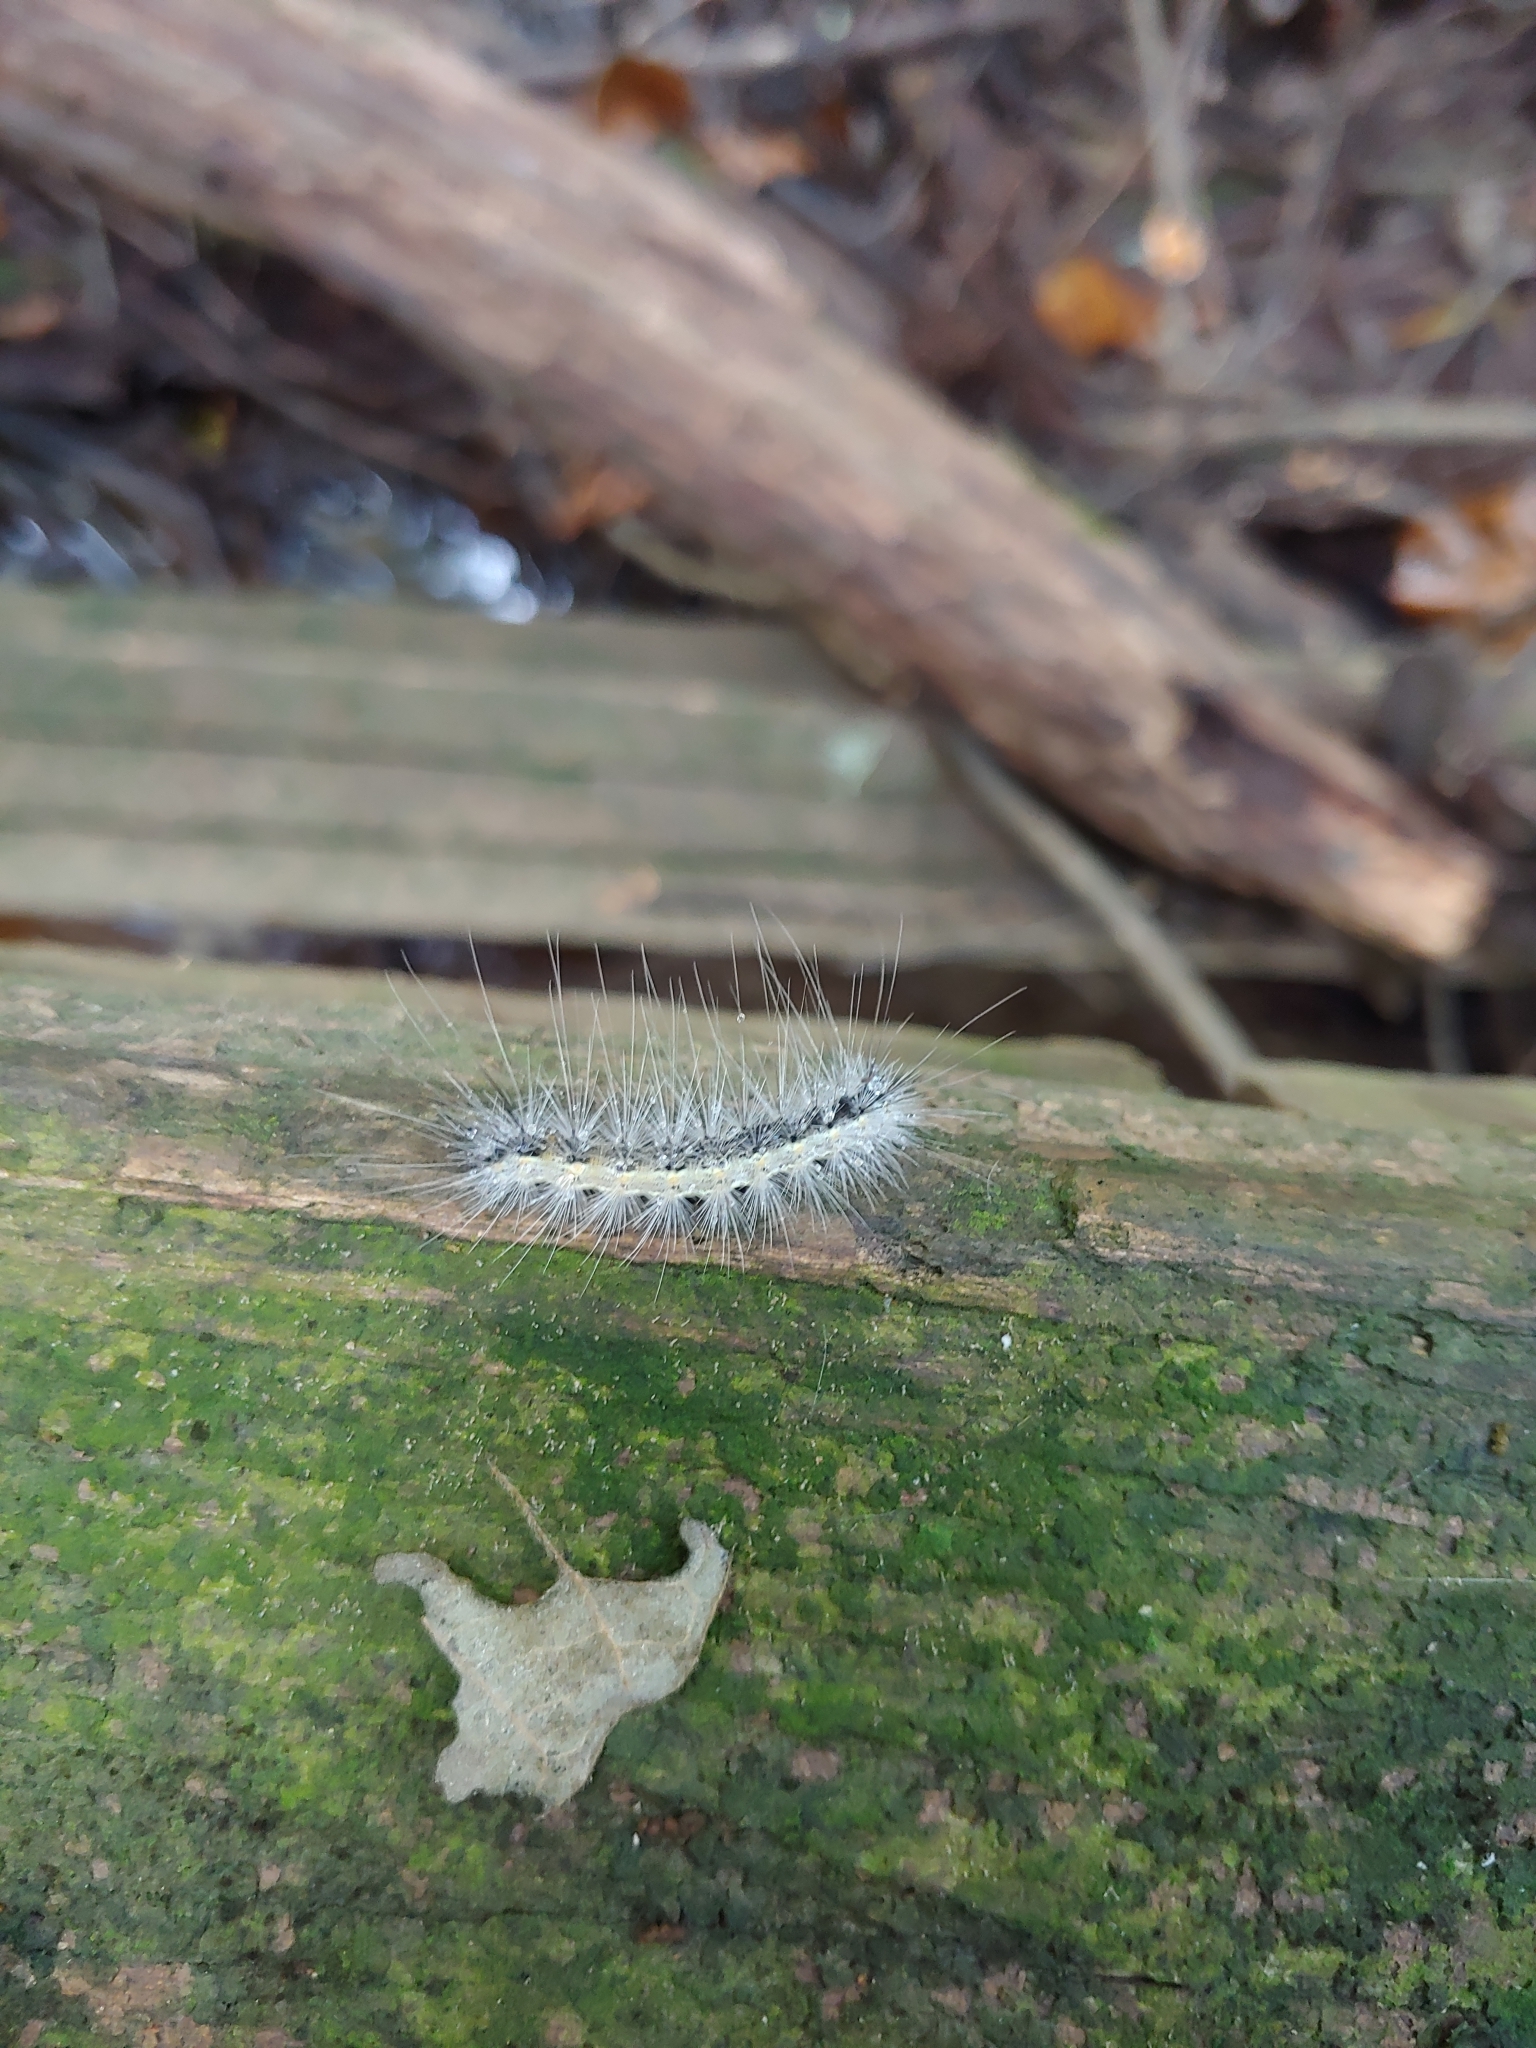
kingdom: Animalia
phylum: Arthropoda
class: Insecta
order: Lepidoptera
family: Erebidae
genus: Hyphantria
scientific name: Hyphantria cunea
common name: American white moth
